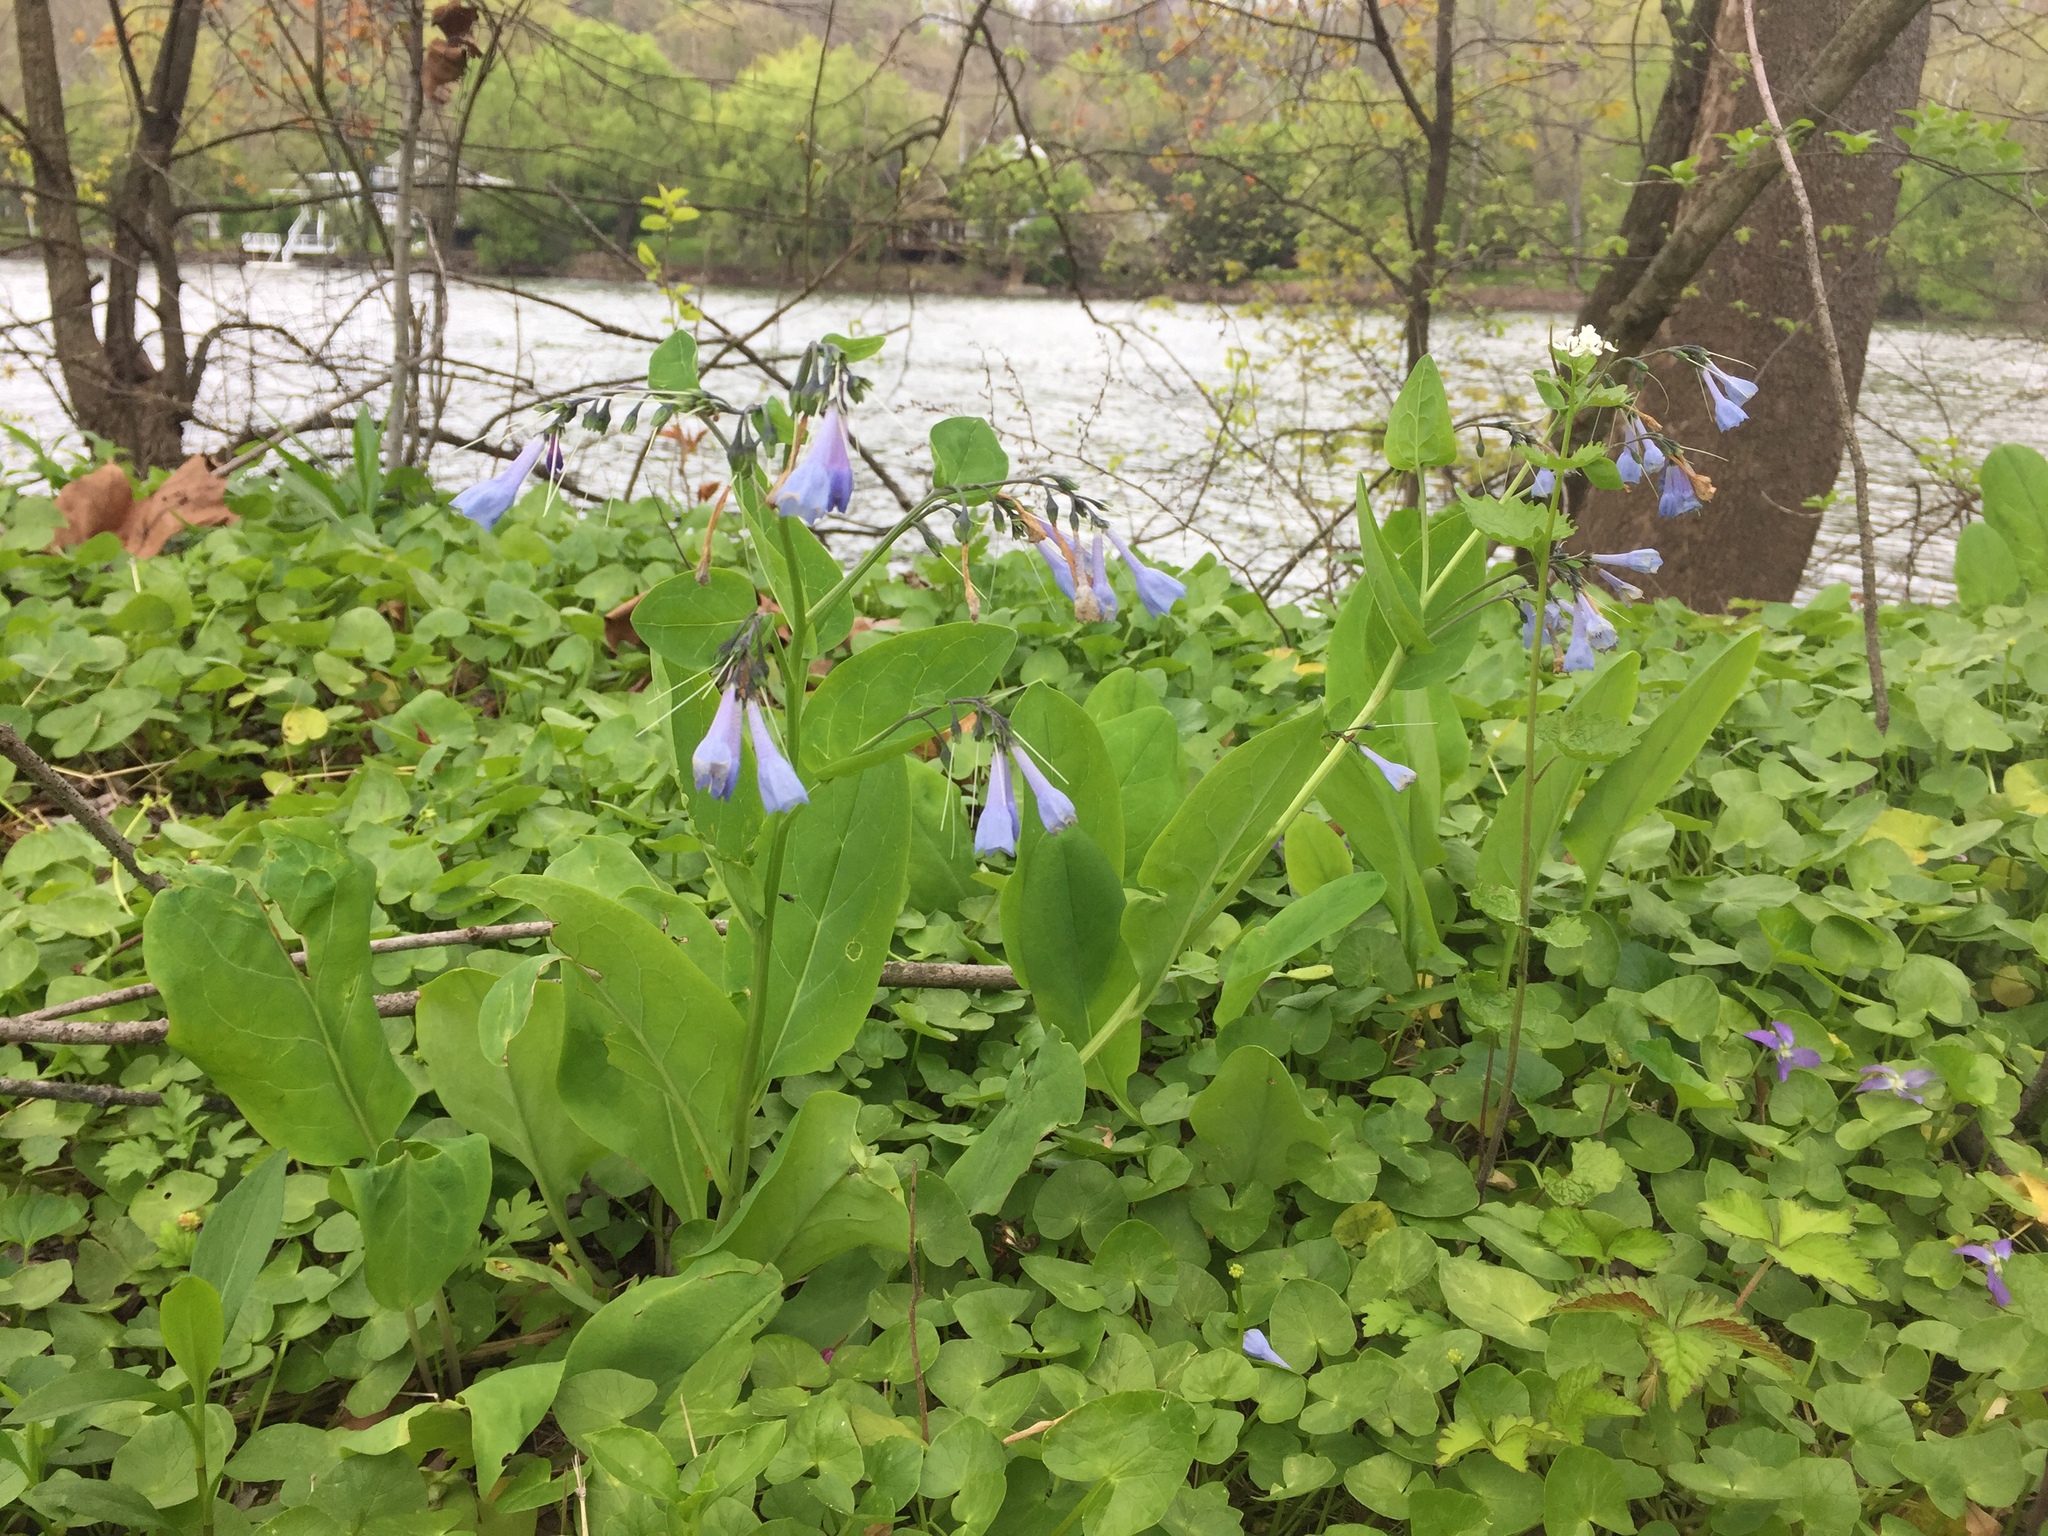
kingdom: Plantae
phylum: Tracheophyta
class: Magnoliopsida
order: Boraginales
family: Boraginaceae
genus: Mertensia
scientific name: Mertensia virginica
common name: Virginia bluebells
